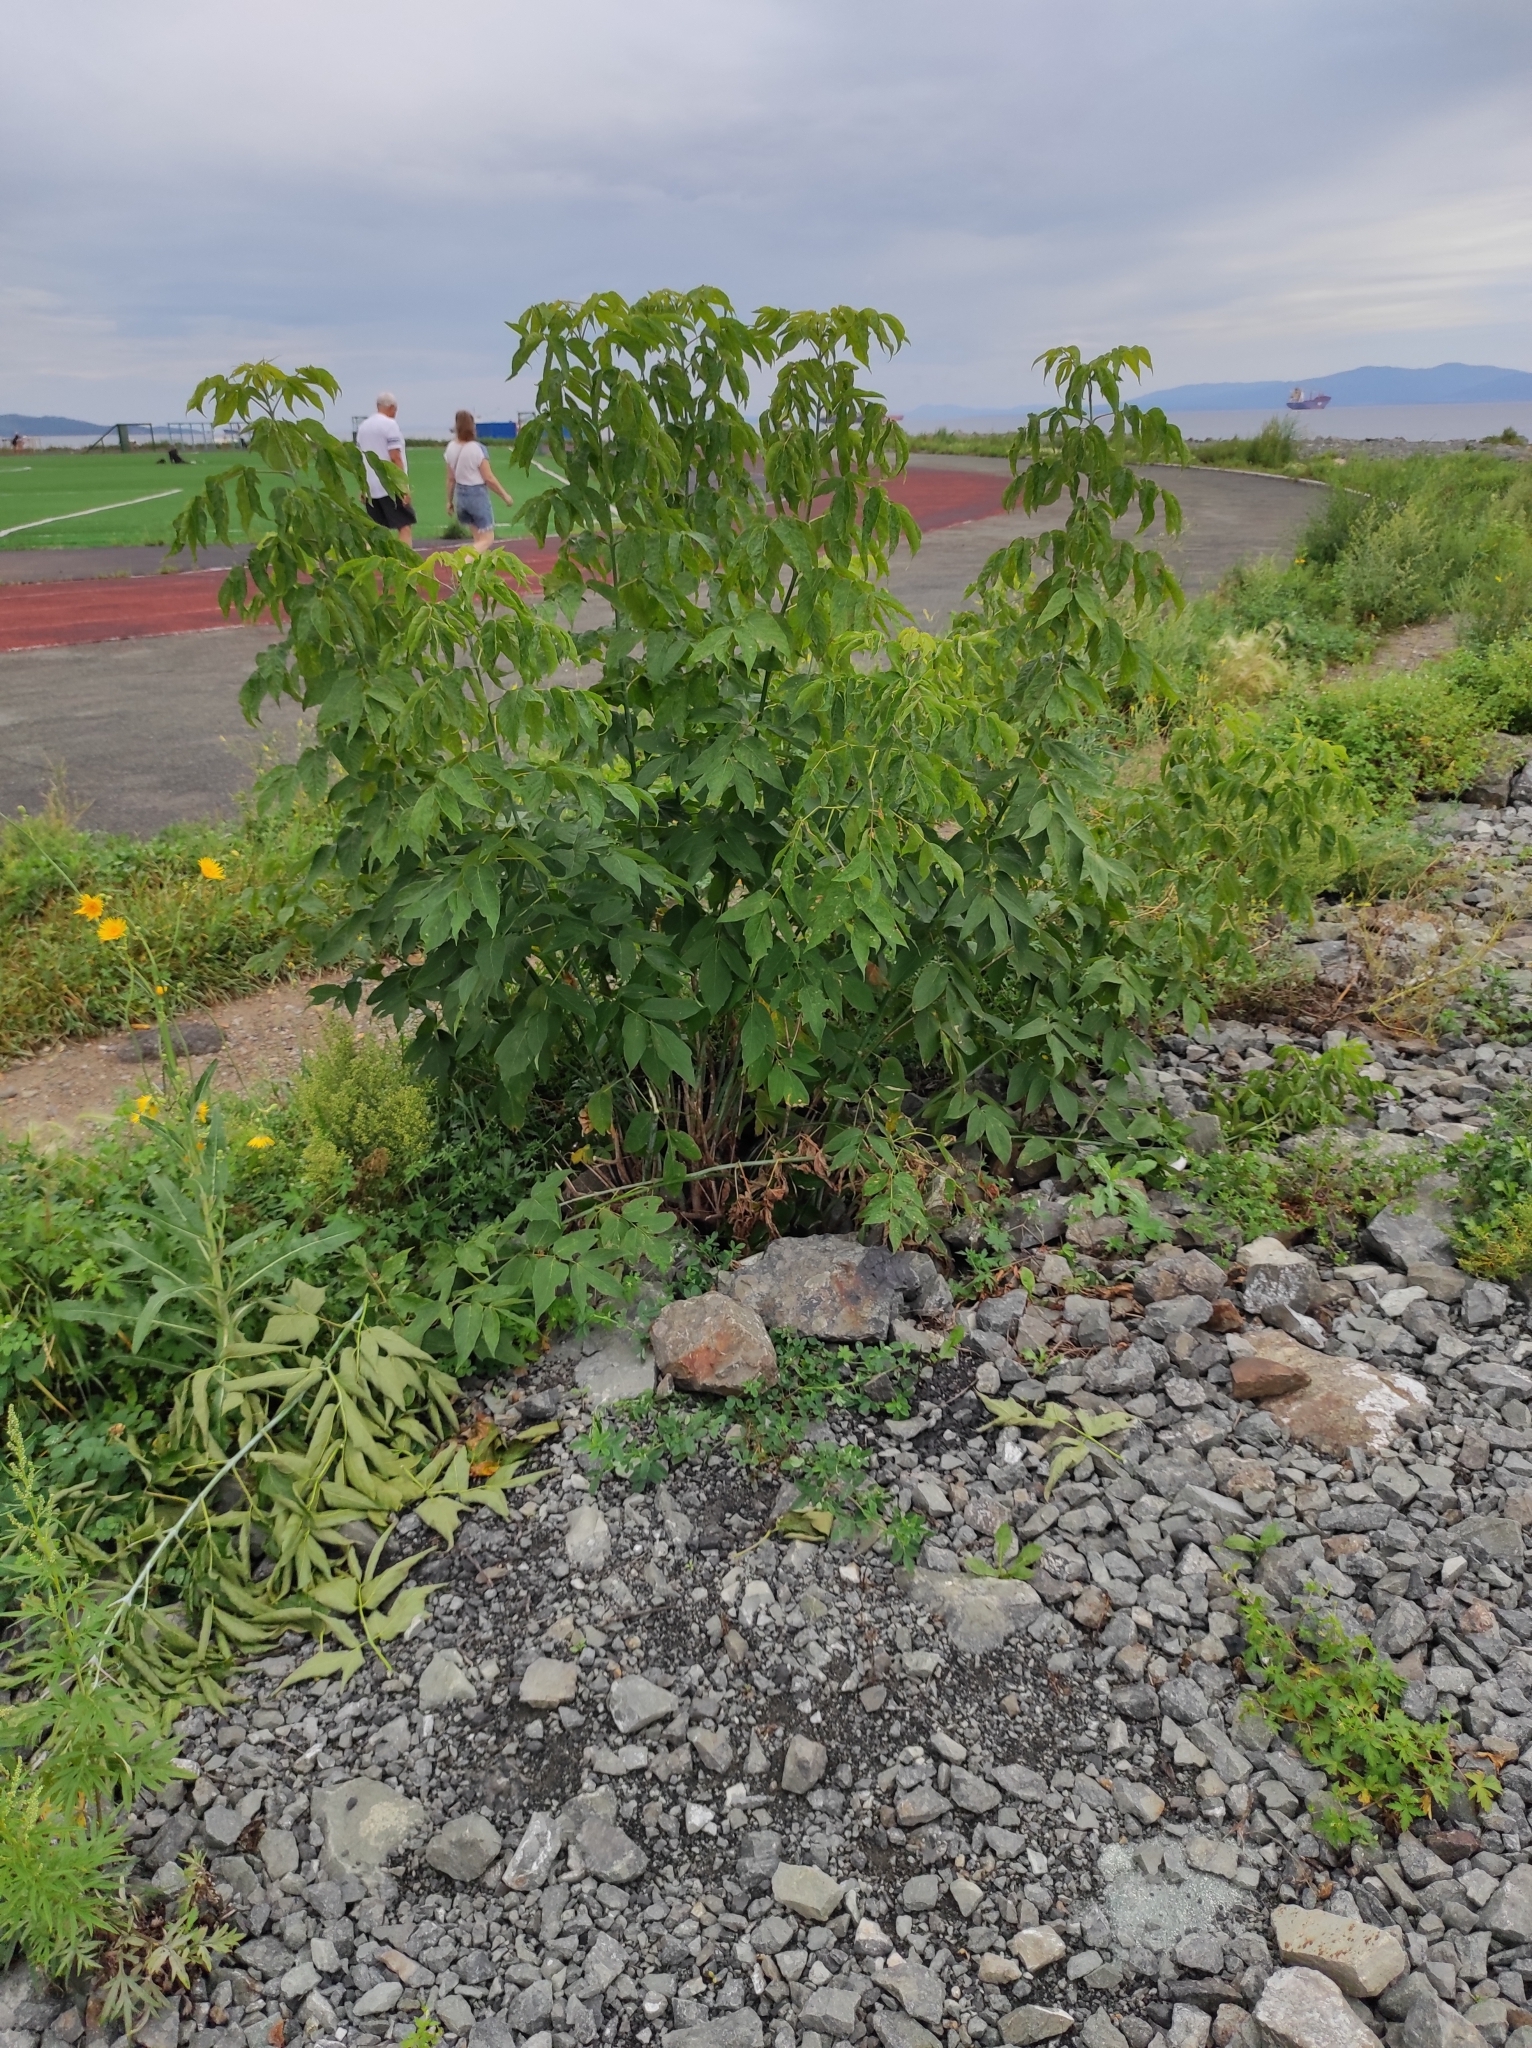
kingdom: Plantae
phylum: Tracheophyta
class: Magnoliopsida
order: Sapindales
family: Sapindaceae
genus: Acer
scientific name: Acer negundo
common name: Ashleaf maple
